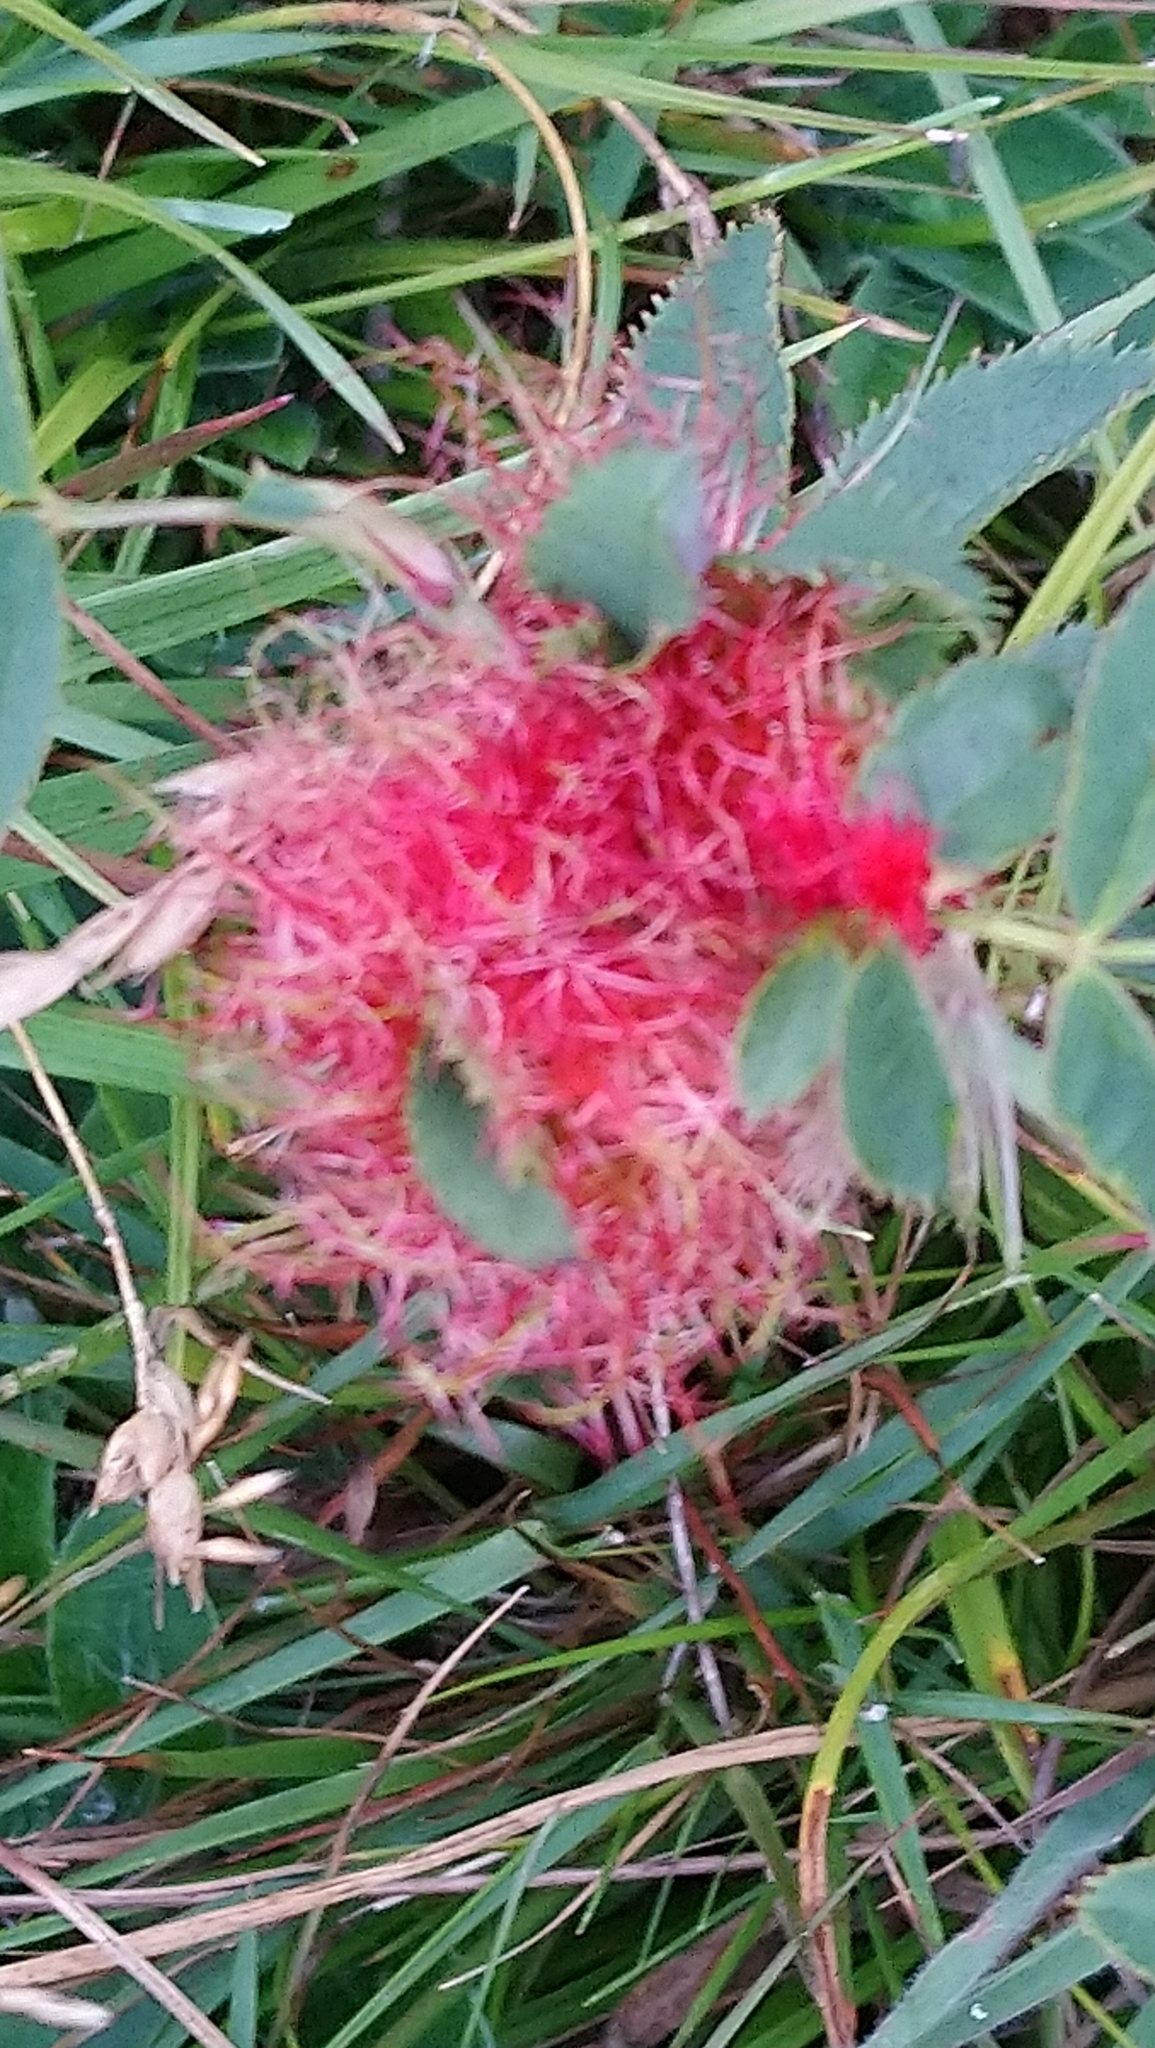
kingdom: Animalia
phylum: Arthropoda
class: Insecta
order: Hymenoptera
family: Cynipidae
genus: Diplolepis
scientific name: Diplolepis rosae
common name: Bedeguar gall
